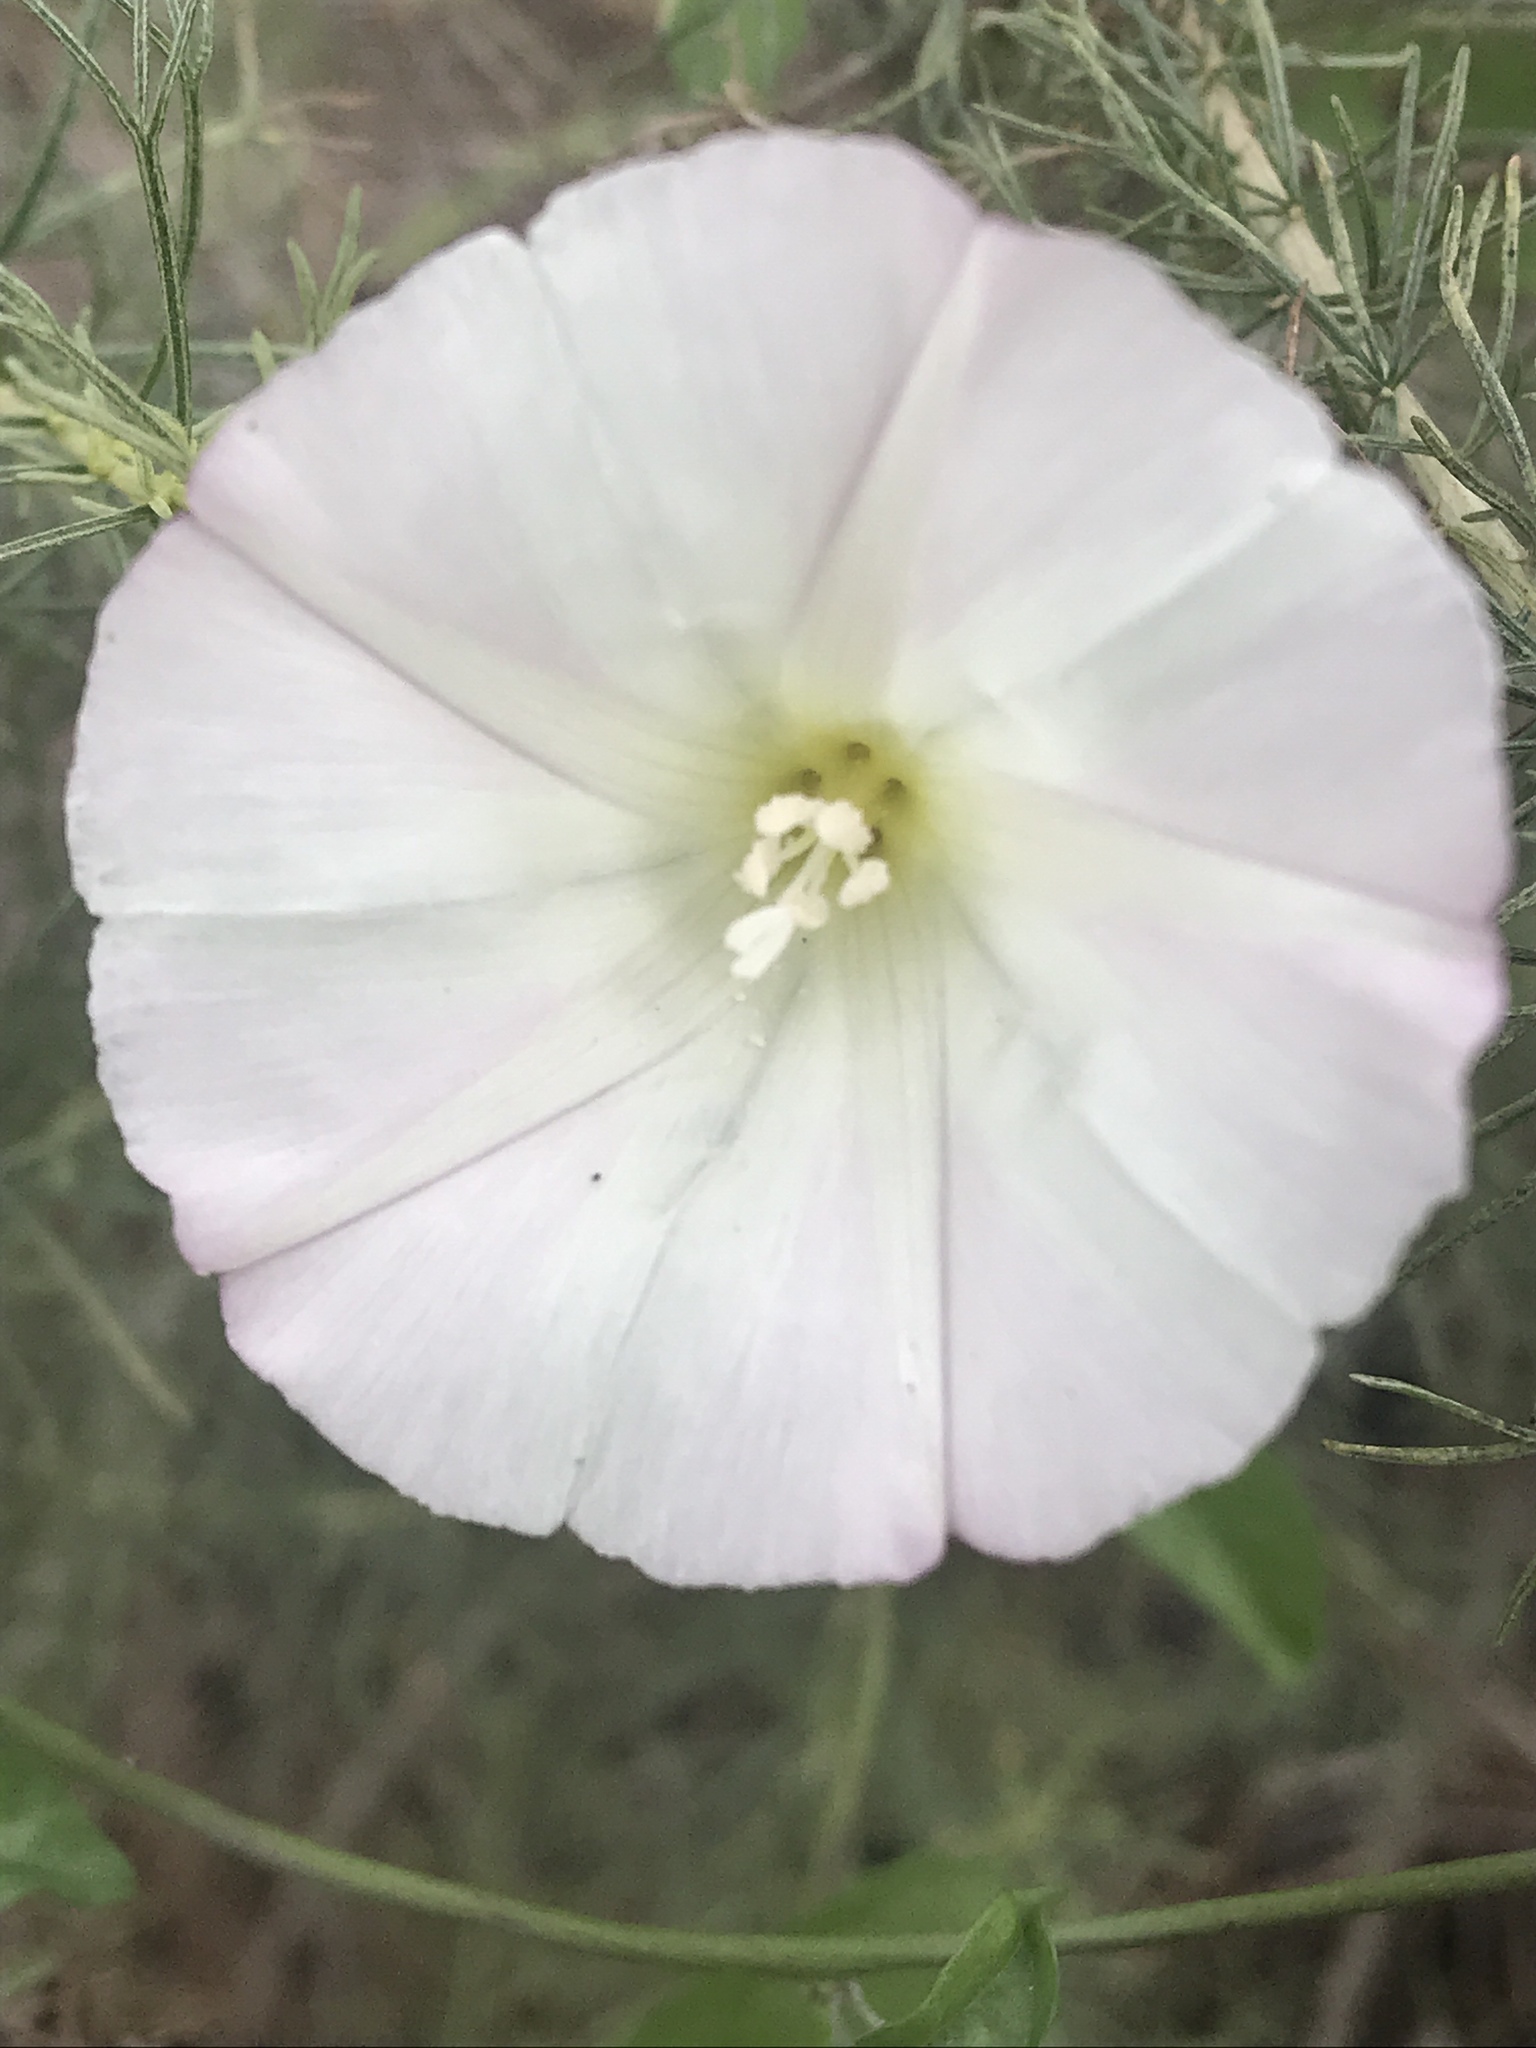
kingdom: Plantae
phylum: Tracheophyta
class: Magnoliopsida
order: Solanales
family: Convolvulaceae
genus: Calystegia
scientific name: Calystegia macrostegia
